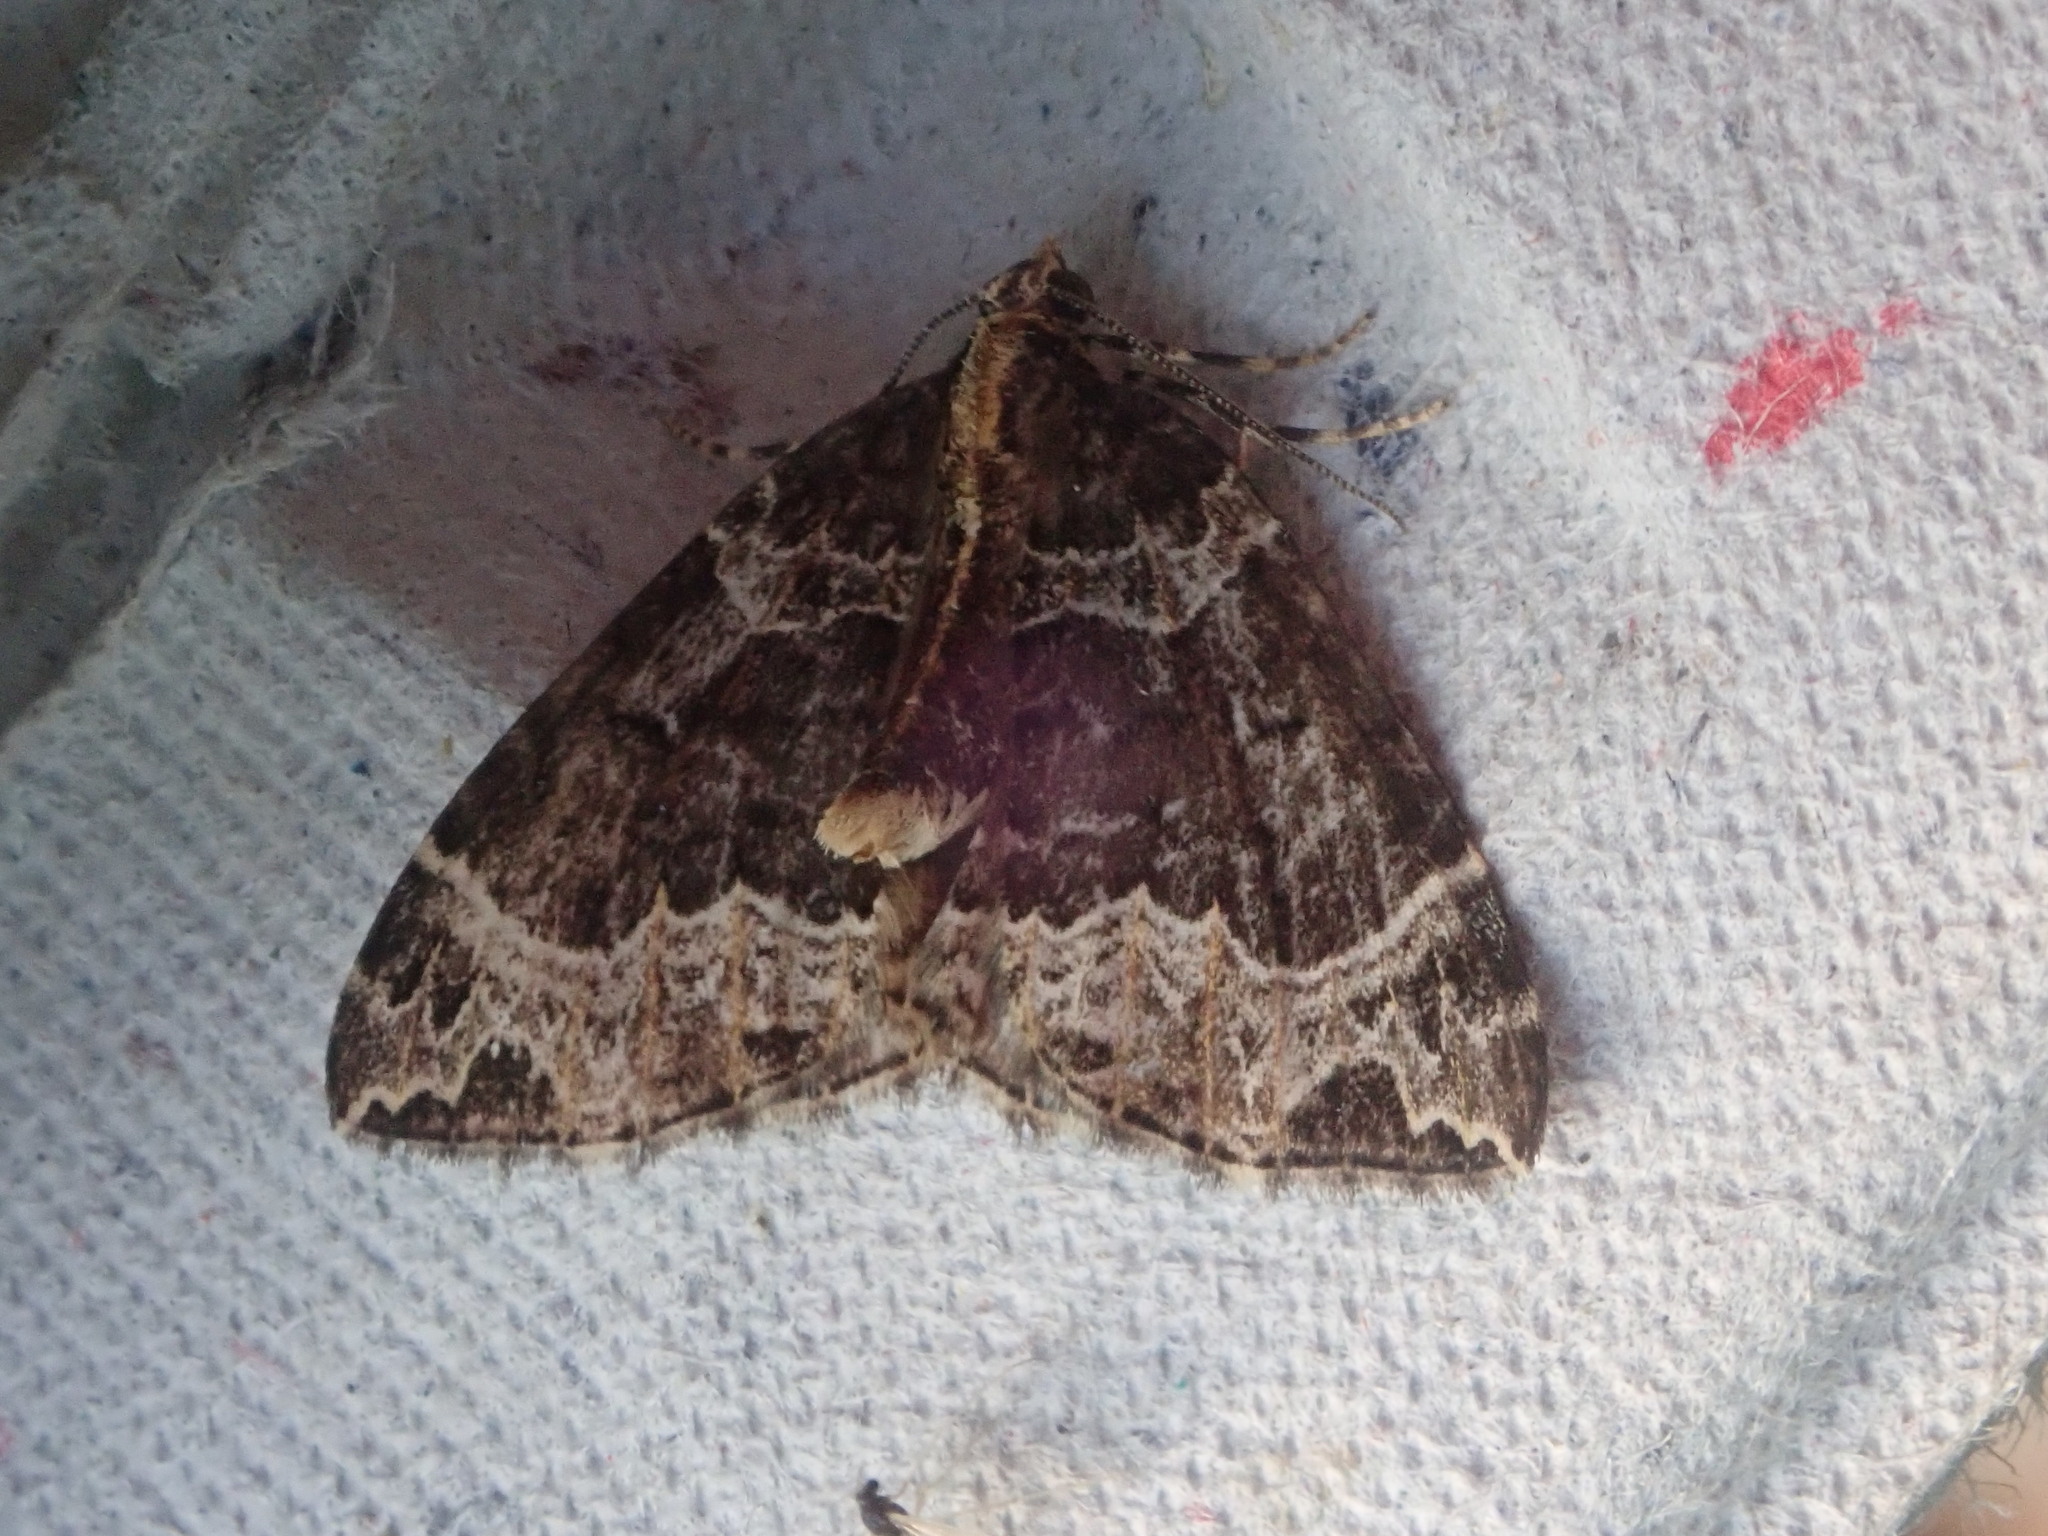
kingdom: Animalia
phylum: Arthropoda
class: Insecta
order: Lepidoptera
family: Geometridae
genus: Ecliptopera
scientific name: Ecliptopera silaceata
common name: Small phoenix
